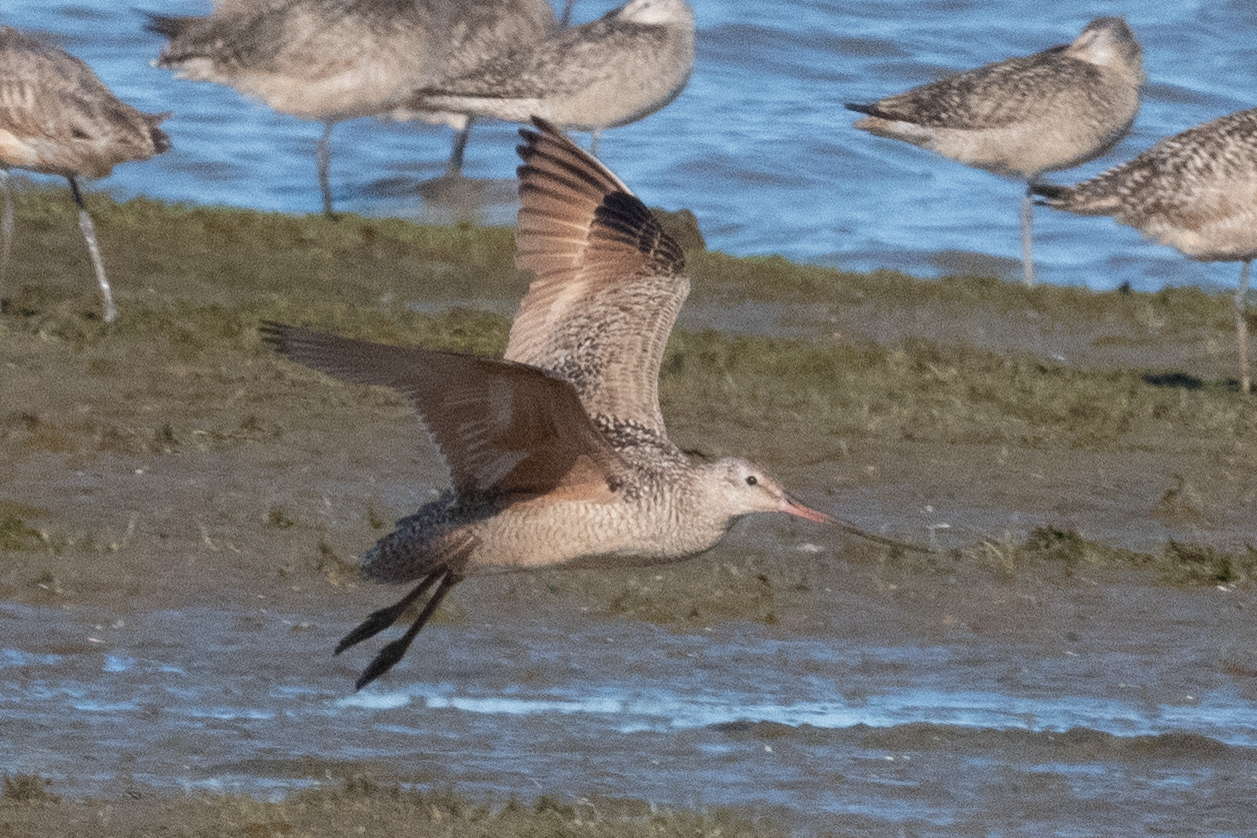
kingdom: Animalia
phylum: Chordata
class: Aves
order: Charadriiformes
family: Scolopacidae
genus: Limosa
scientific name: Limosa fedoa
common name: Marbled godwit
